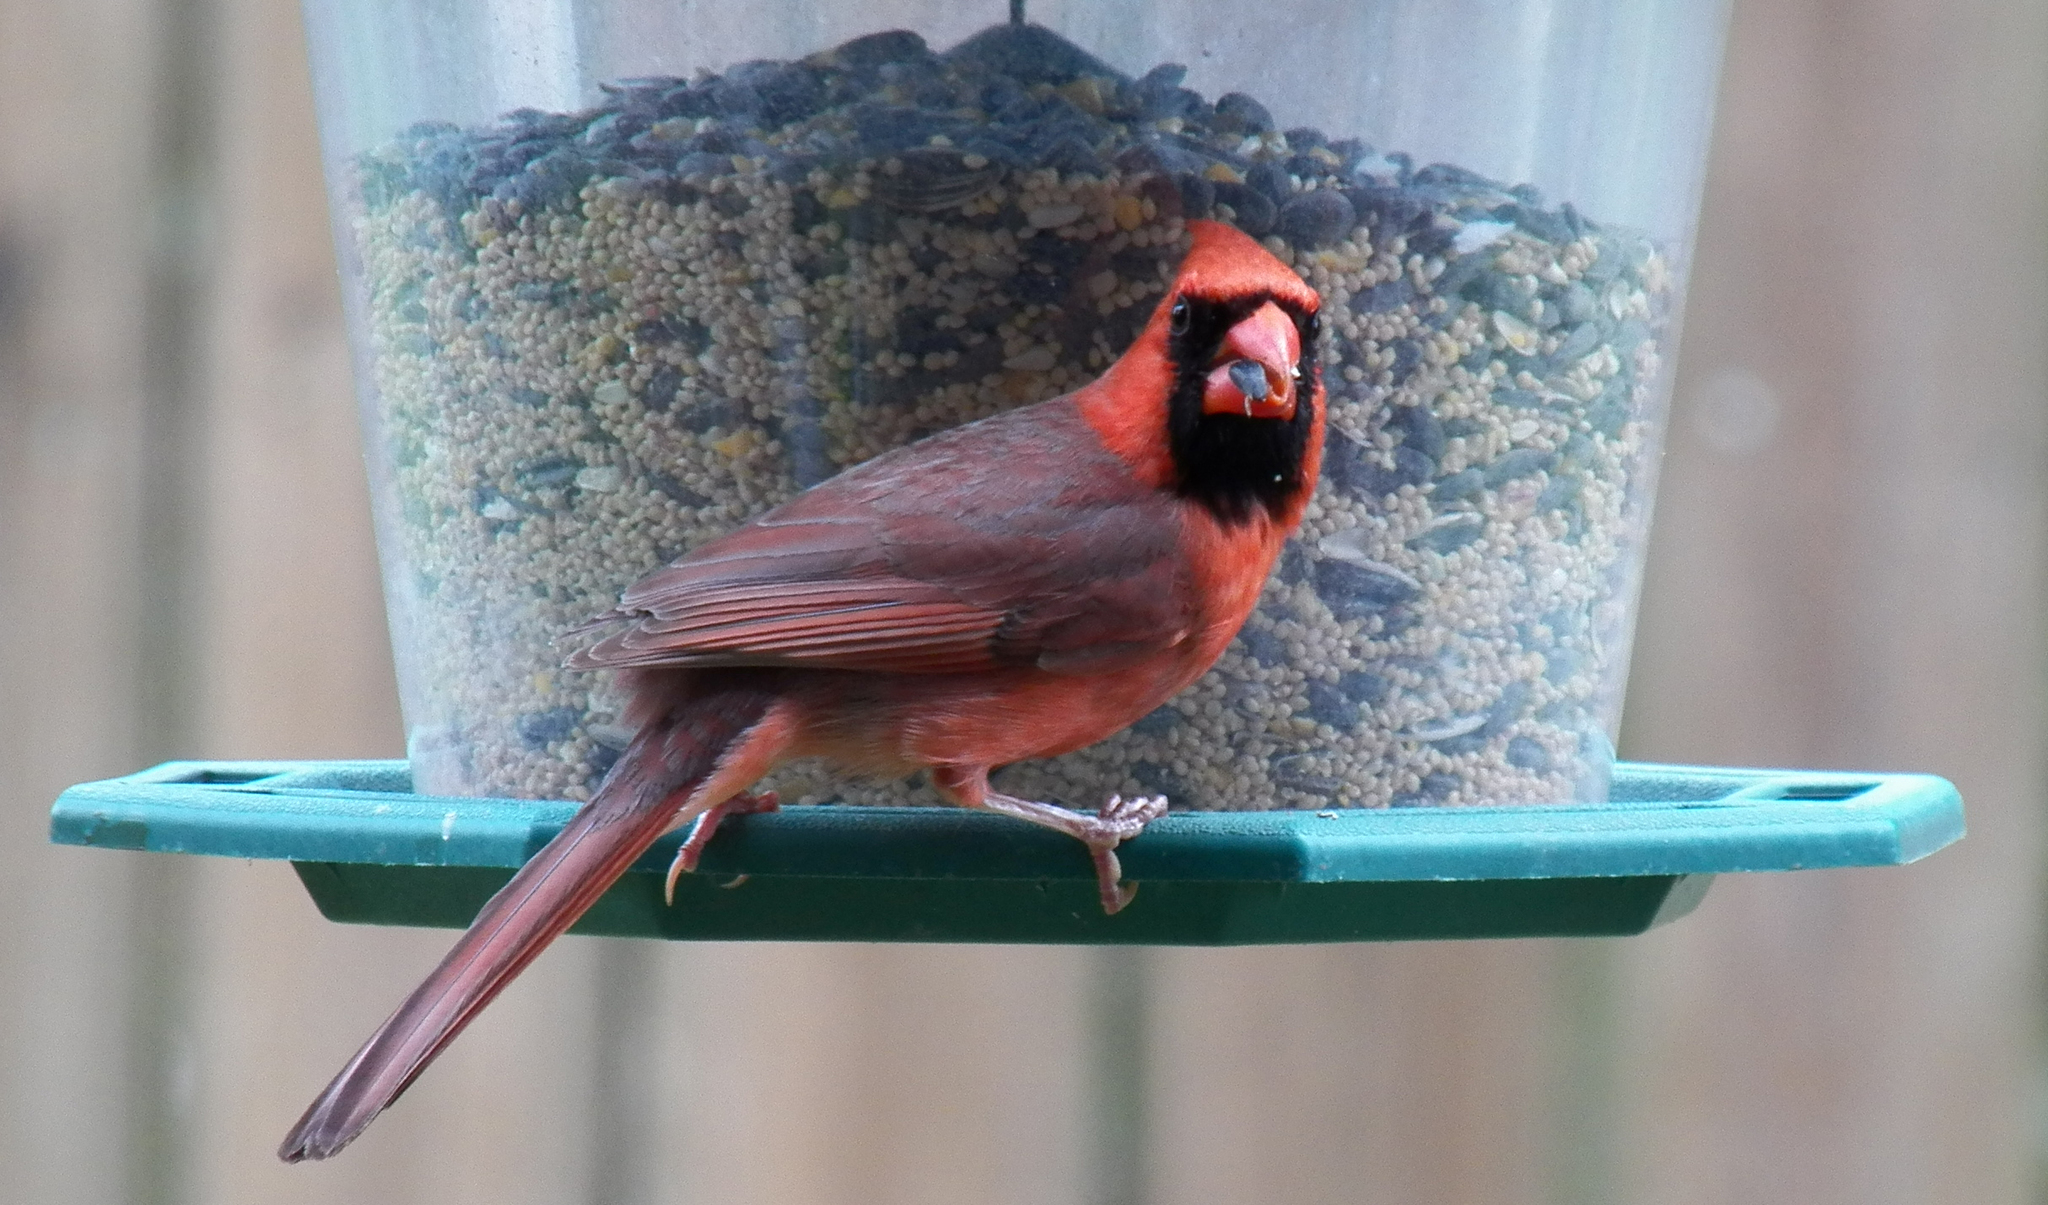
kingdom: Animalia
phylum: Chordata
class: Aves
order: Passeriformes
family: Cardinalidae
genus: Cardinalis
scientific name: Cardinalis cardinalis
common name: Northern cardinal
